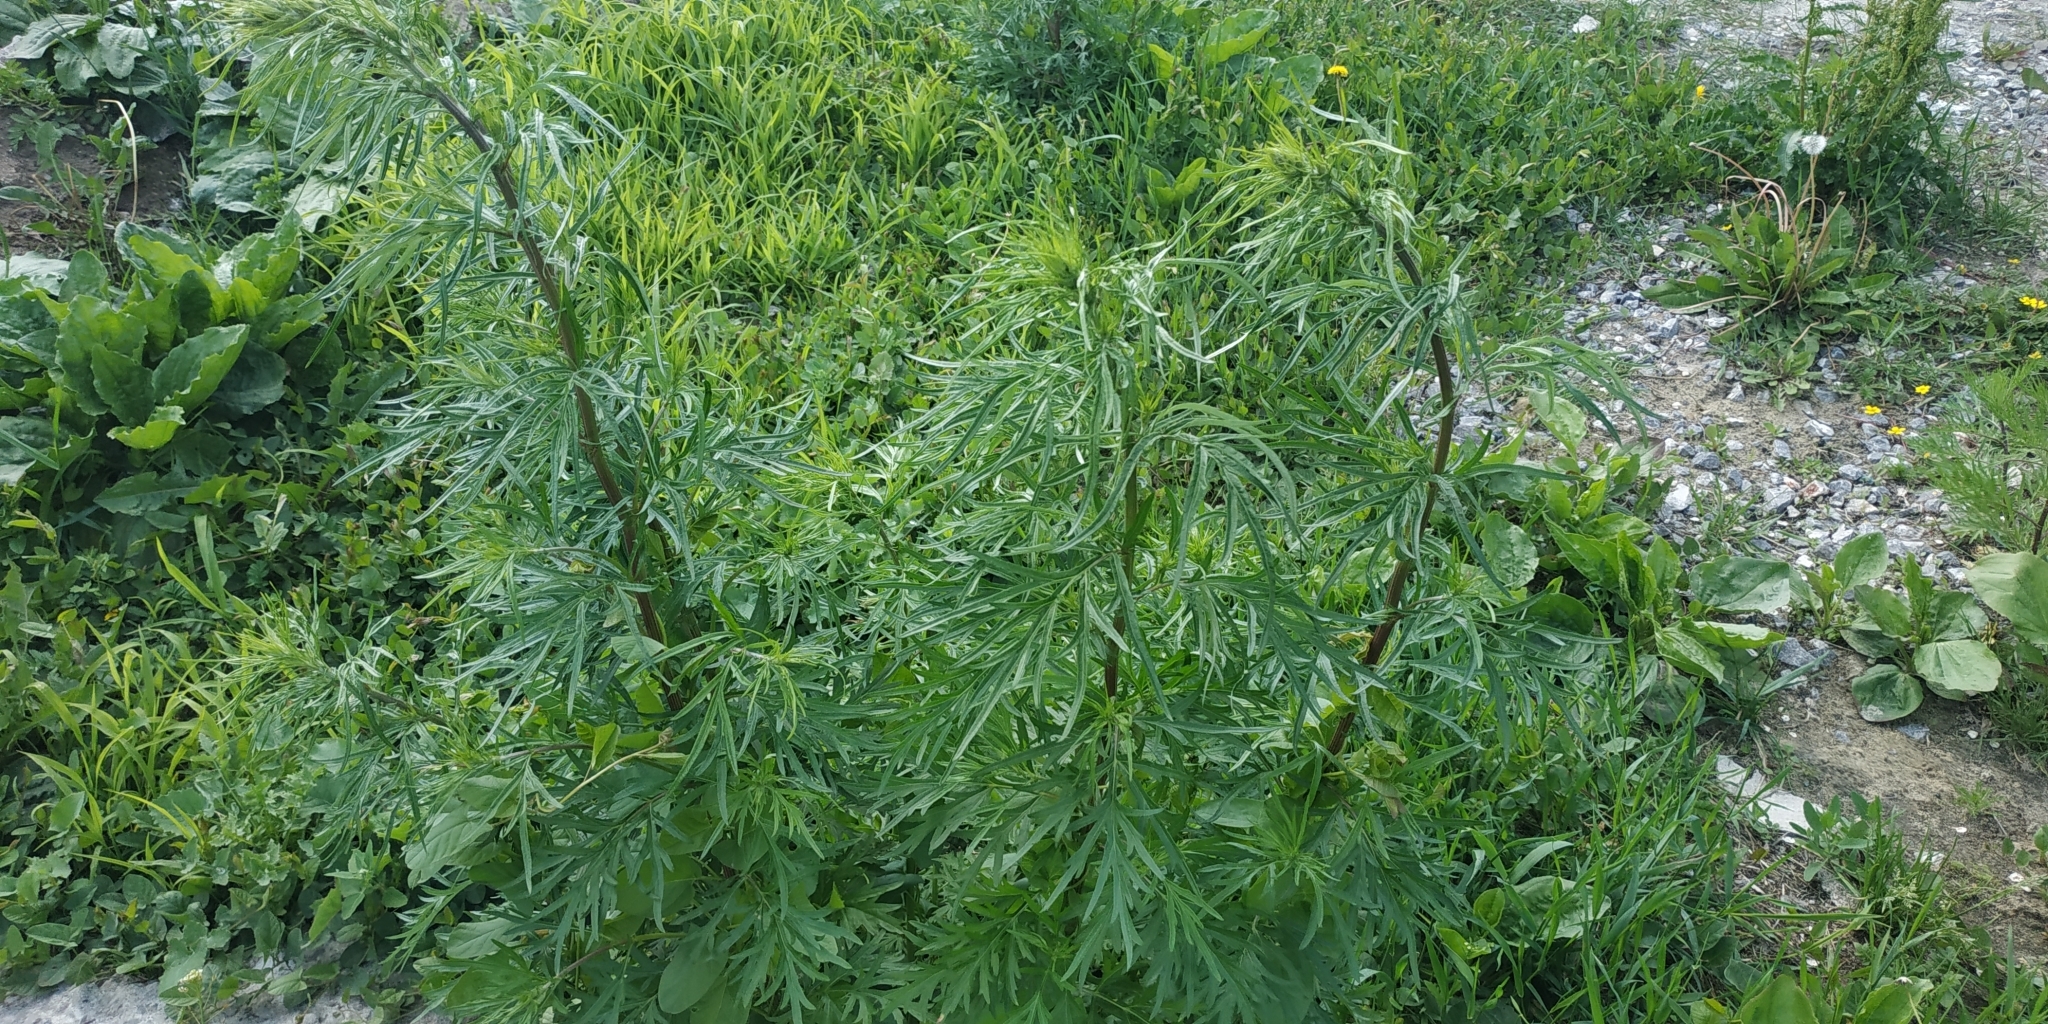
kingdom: Plantae
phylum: Tracheophyta
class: Magnoliopsida
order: Asterales
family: Asteraceae
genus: Artemisia
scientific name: Artemisia vulgaris
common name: Mugwort
